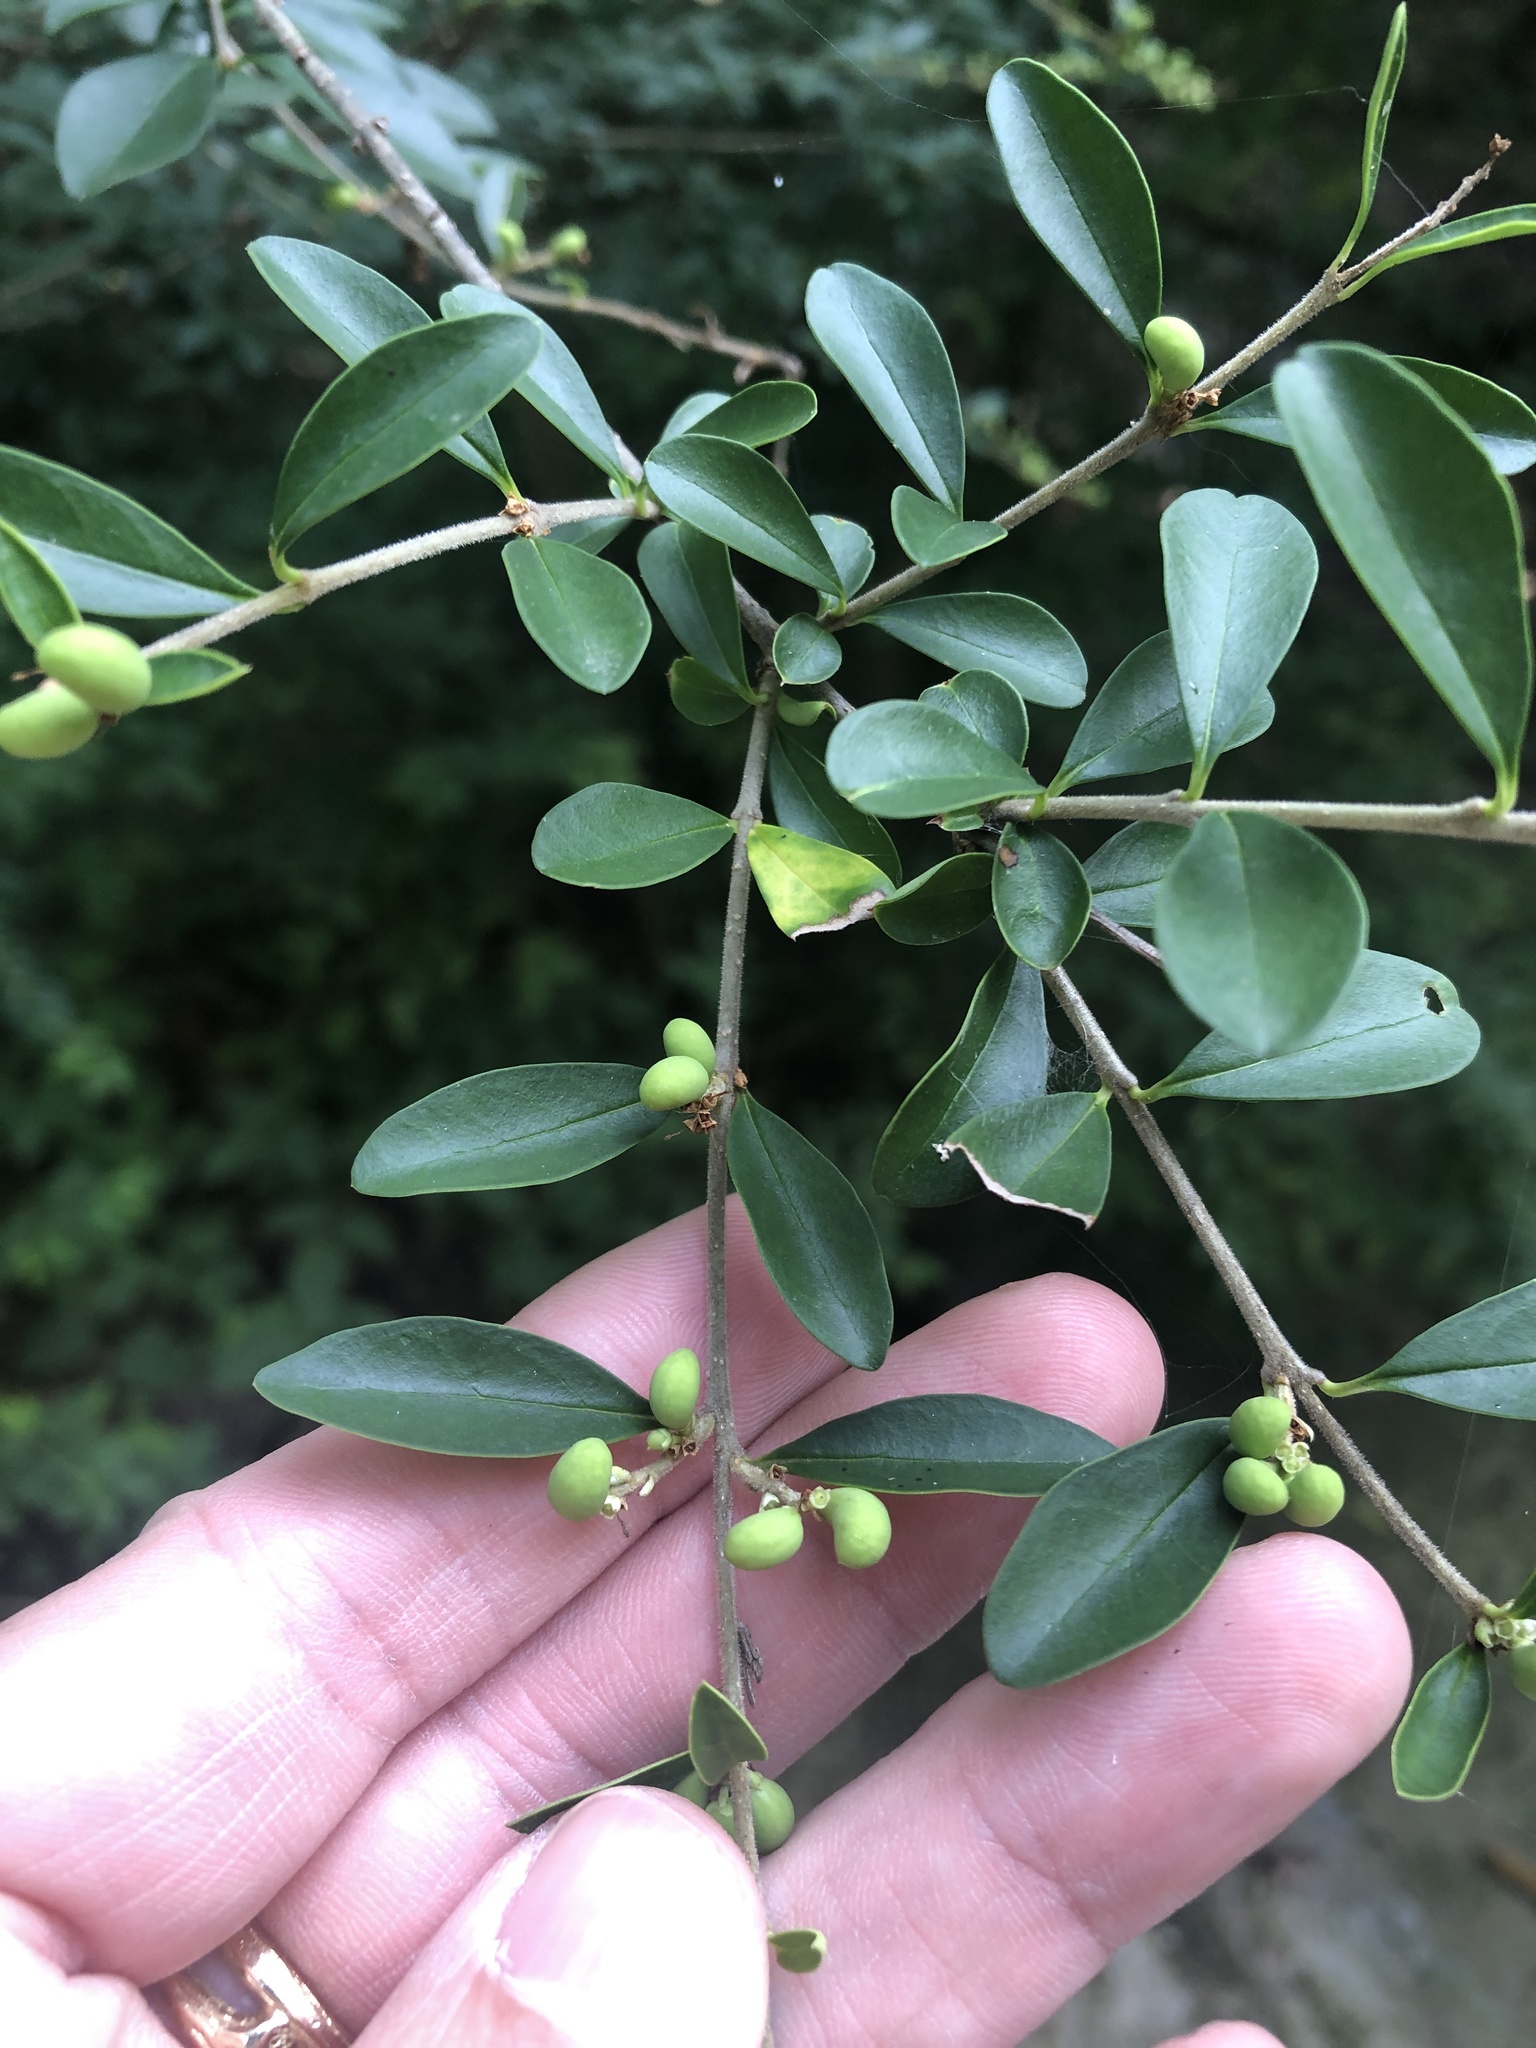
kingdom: Plantae
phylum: Tracheophyta
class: Magnoliopsida
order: Lamiales
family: Oleaceae
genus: Ligustrum
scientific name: Ligustrum quihoui
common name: Waxyleaf privet
